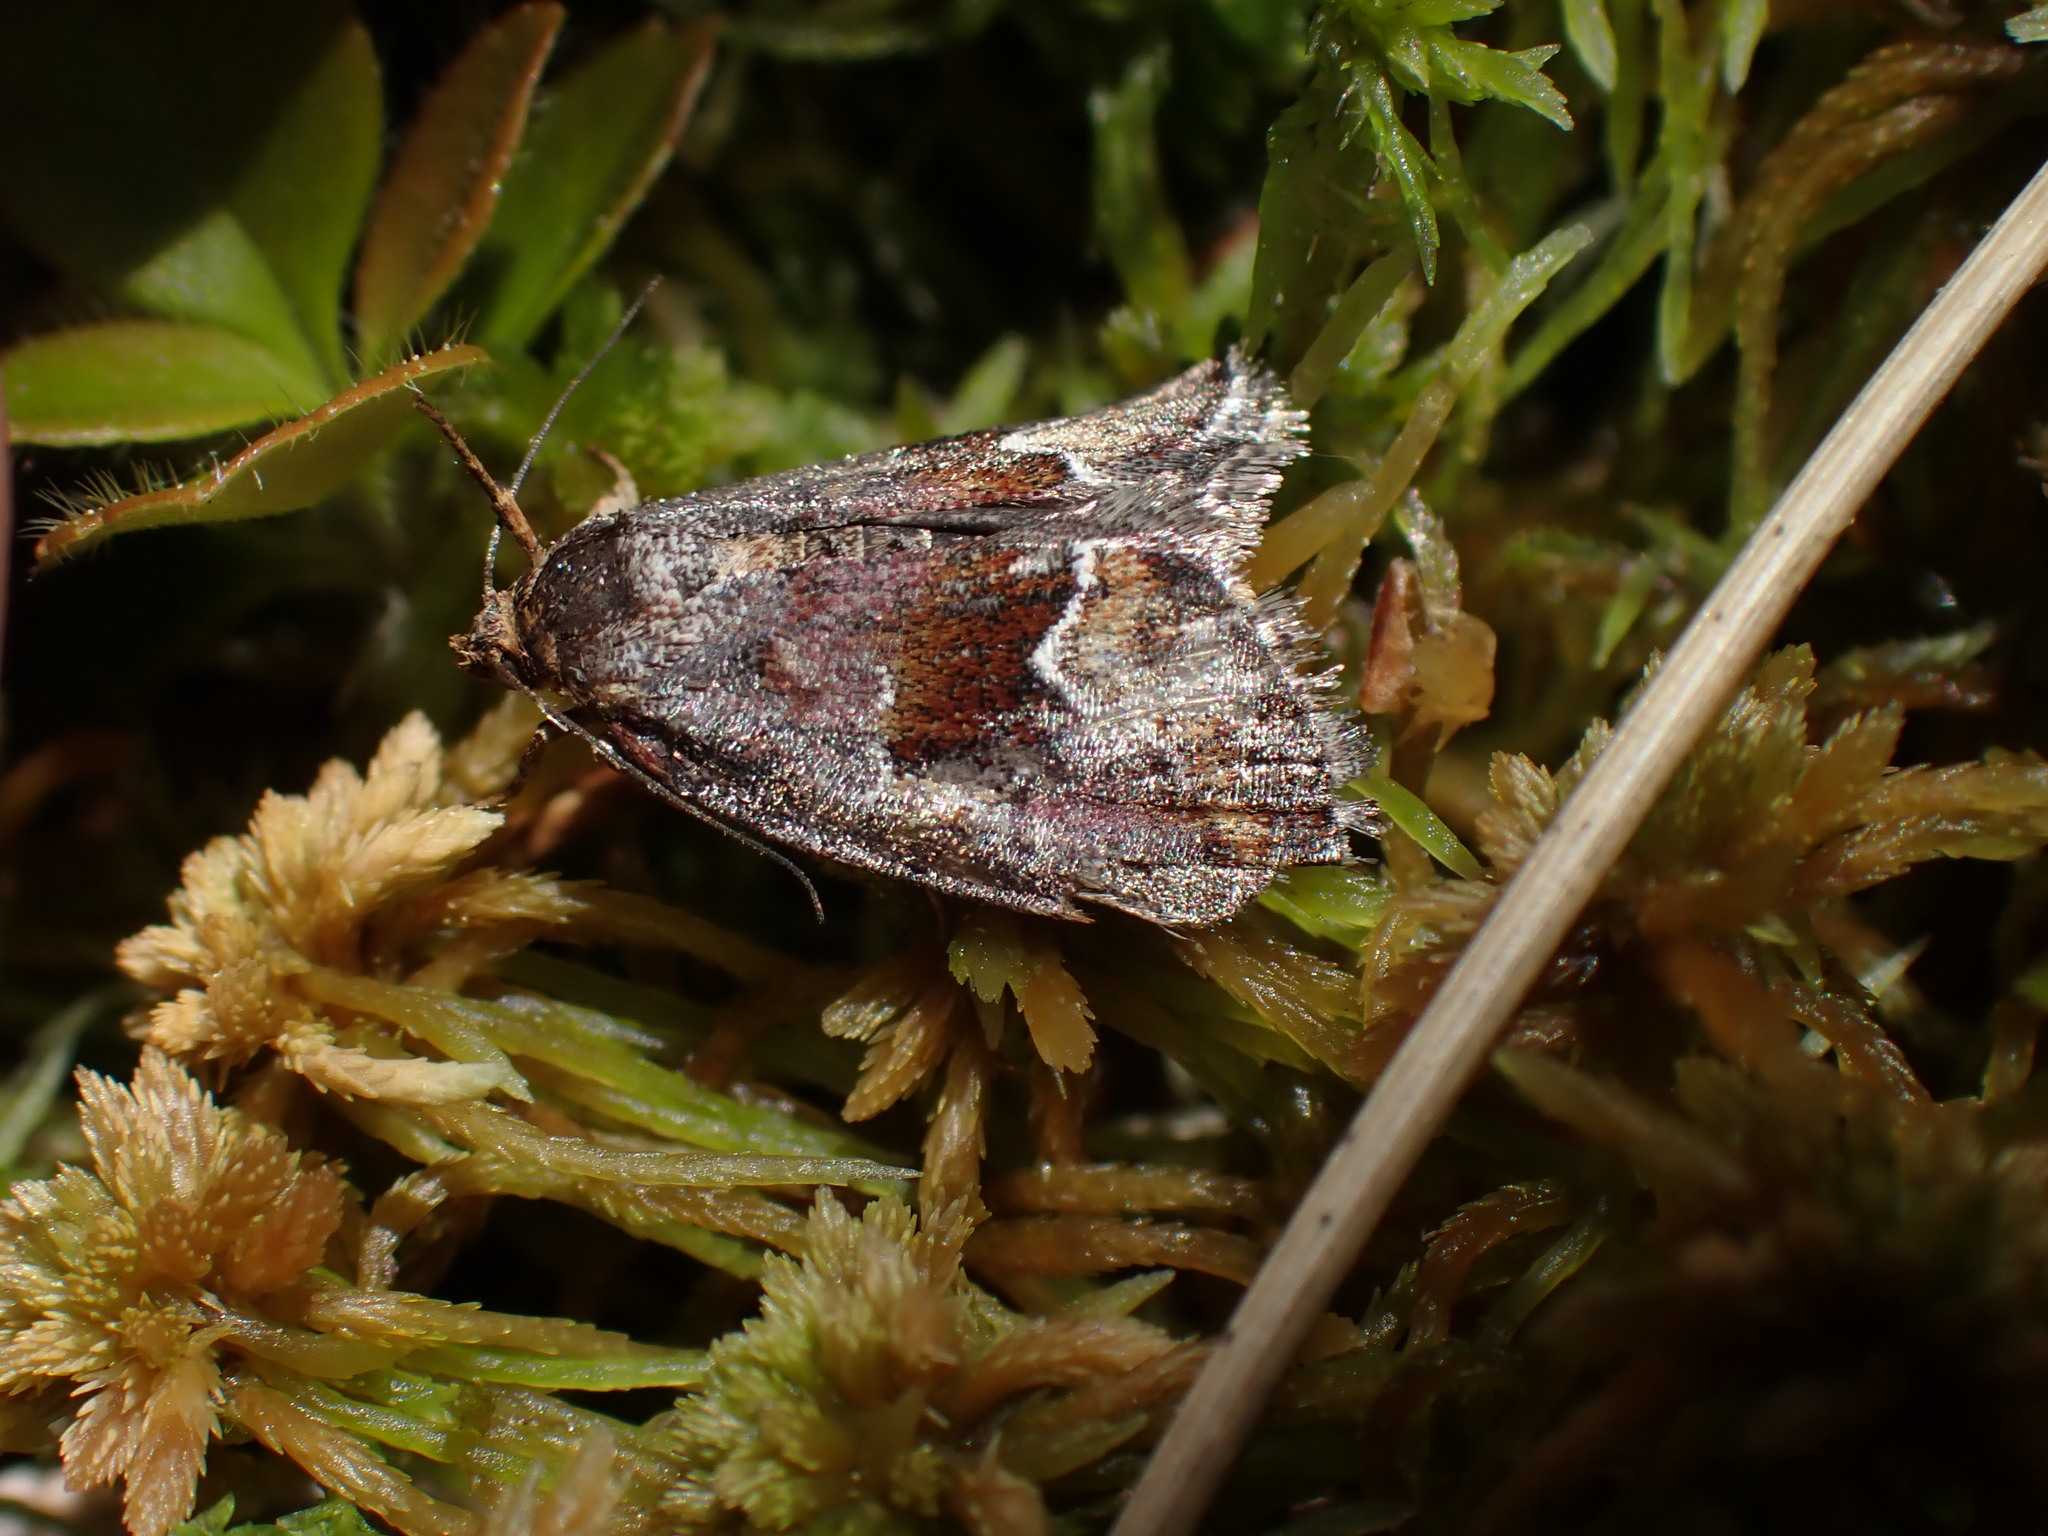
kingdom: Animalia
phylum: Arthropoda
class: Insecta
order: Lepidoptera
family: Noctuidae
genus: Deltote
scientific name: Deltote bellicula
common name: Bog glyph
